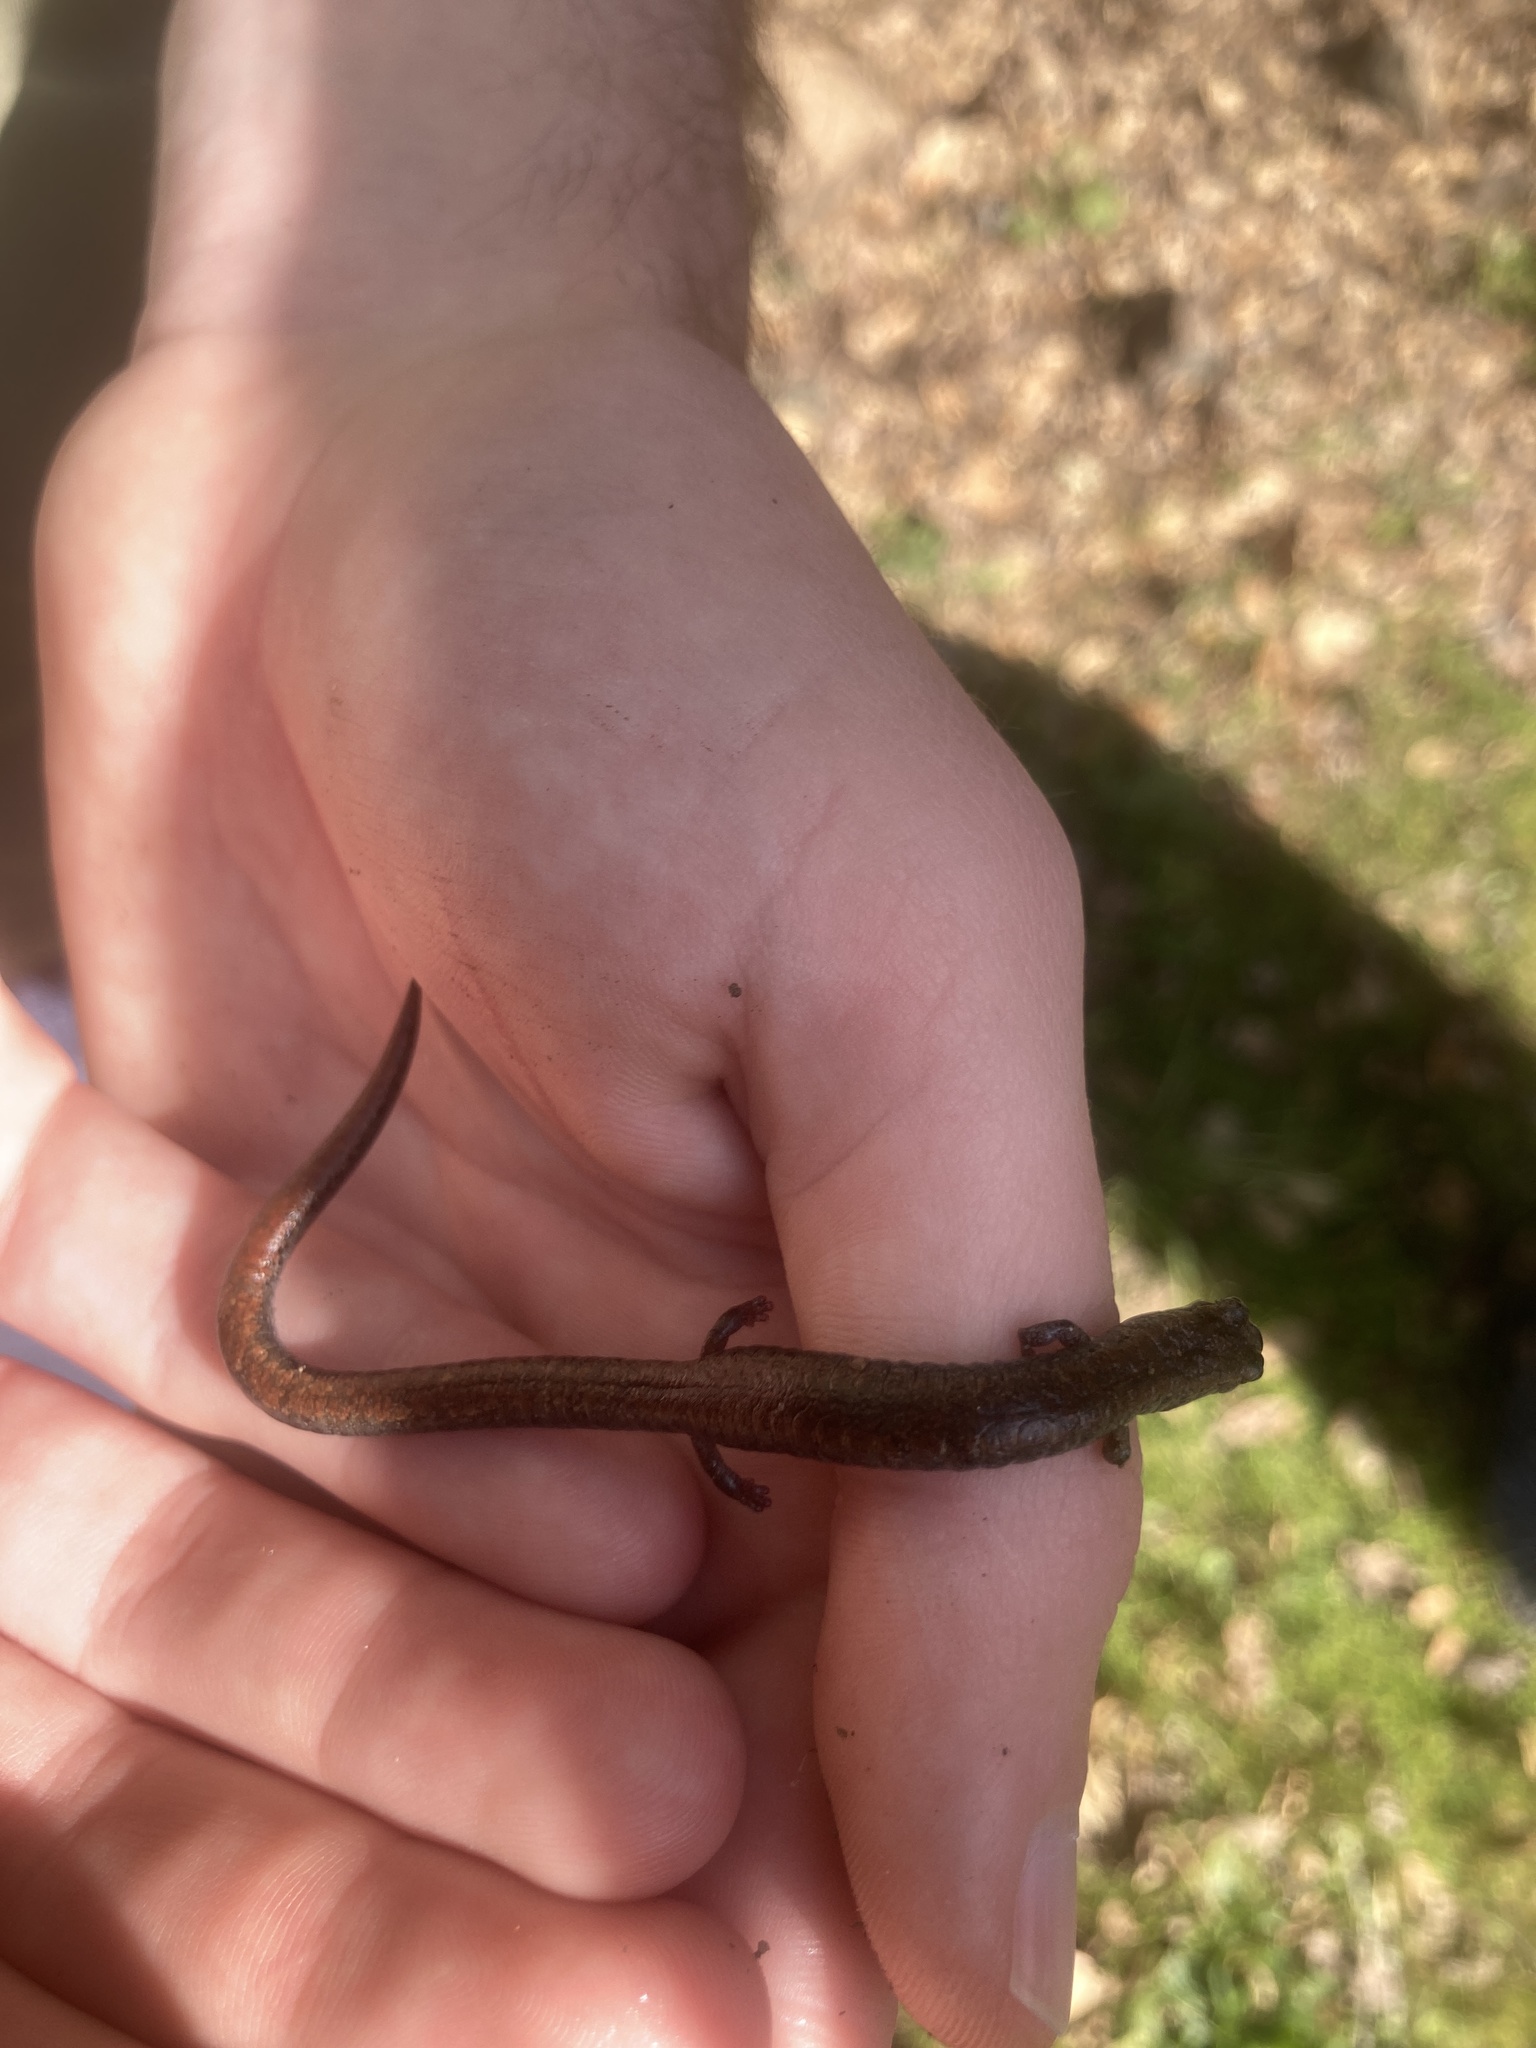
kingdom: Animalia
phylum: Chordata
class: Amphibia
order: Caudata
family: Plethodontidae
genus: Batrachoseps
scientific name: Batrachoseps attenuatus
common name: California slender salamander
